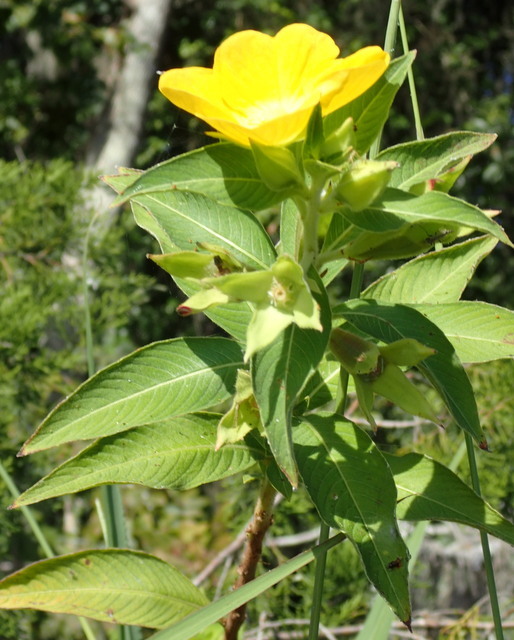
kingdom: Plantae
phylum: Tracheophyta
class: Magnoliopsida
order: Myrtales
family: Onagraceae
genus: Ludwigia
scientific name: Ludwigia peruviana
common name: Peruvian primrose-willow
